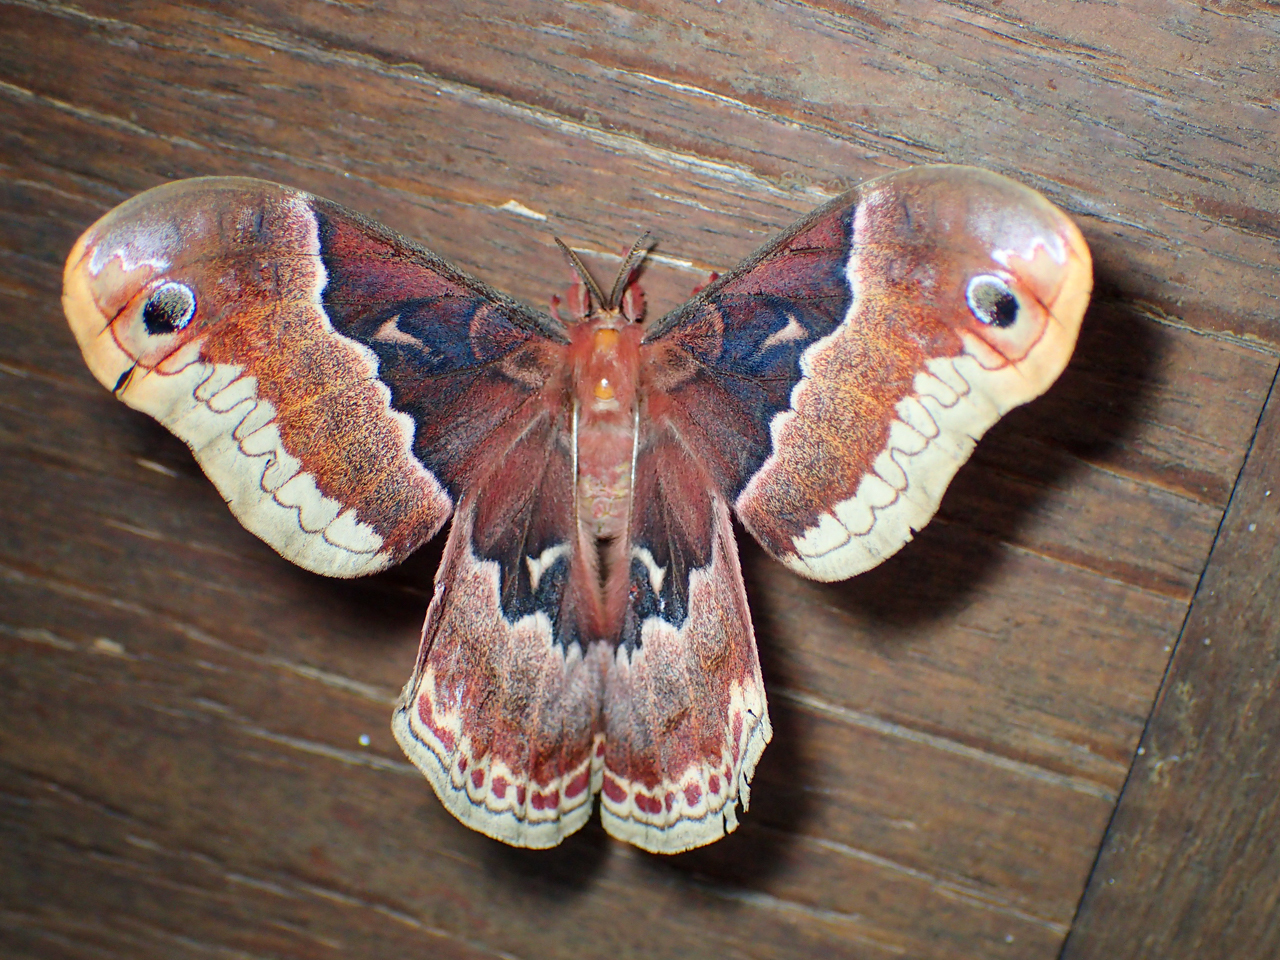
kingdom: Animalia
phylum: Arthropoda
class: Insecta
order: Lepidoptera
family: Saturniidae
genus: Callosamia
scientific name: Callosamia angulifera
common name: Tulip tree silkmoth
